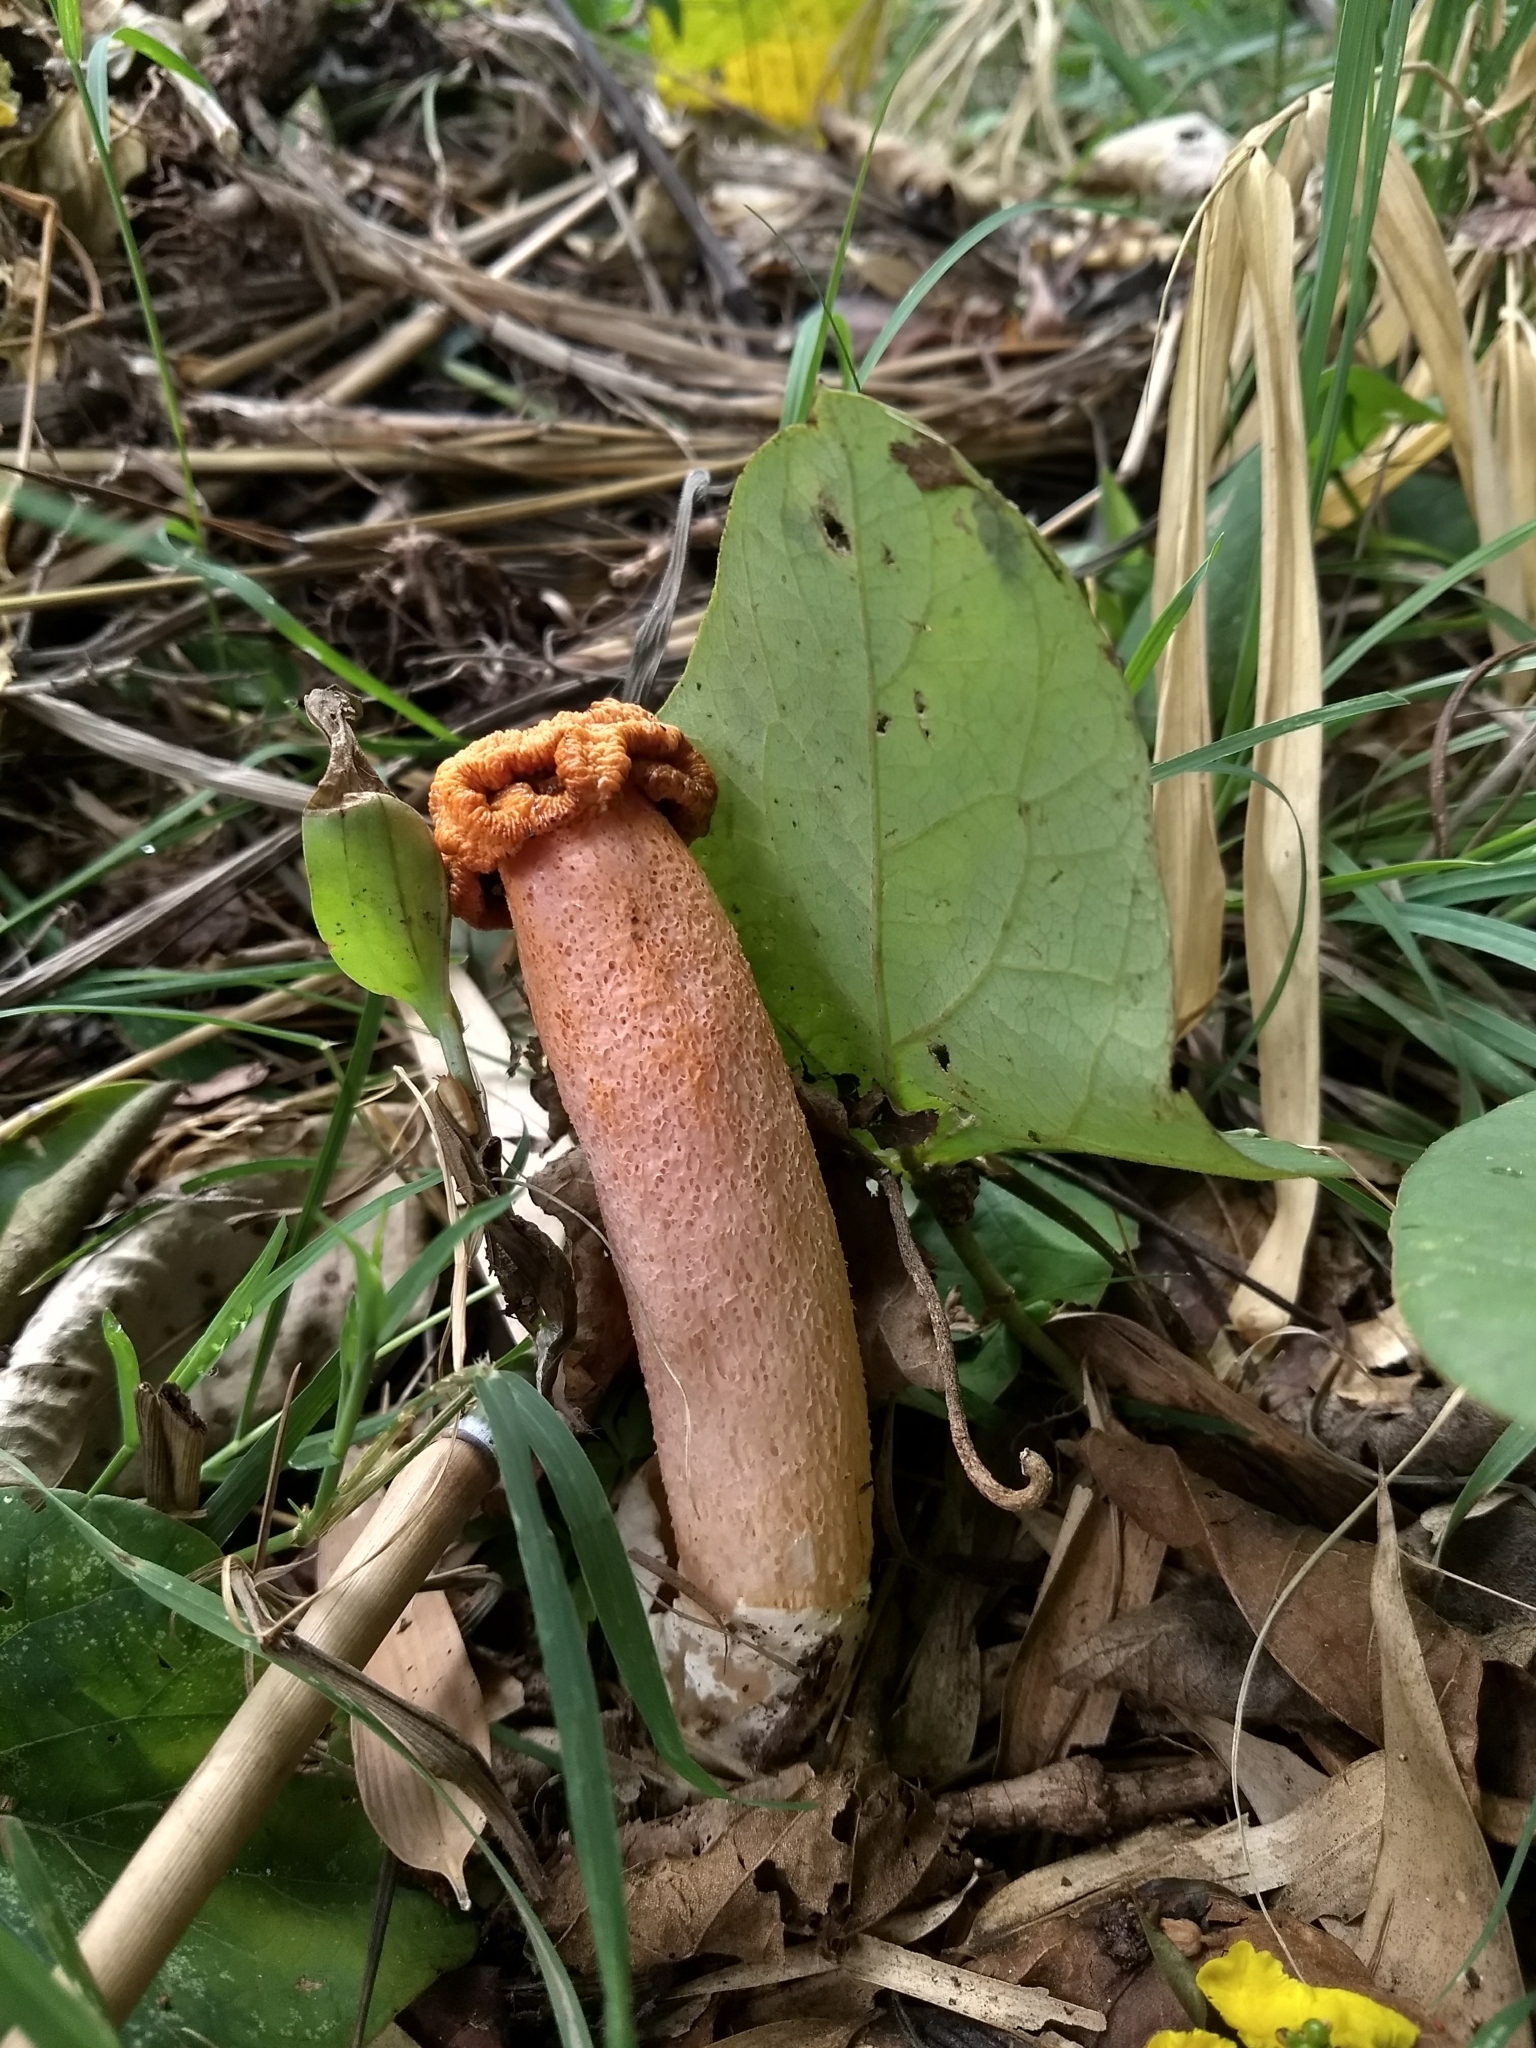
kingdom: Fungi
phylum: Basidiomycota
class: Agaricomycetes
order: Phallales
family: Phallaceae
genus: Lysurus
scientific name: Lysurus periphragmoides
